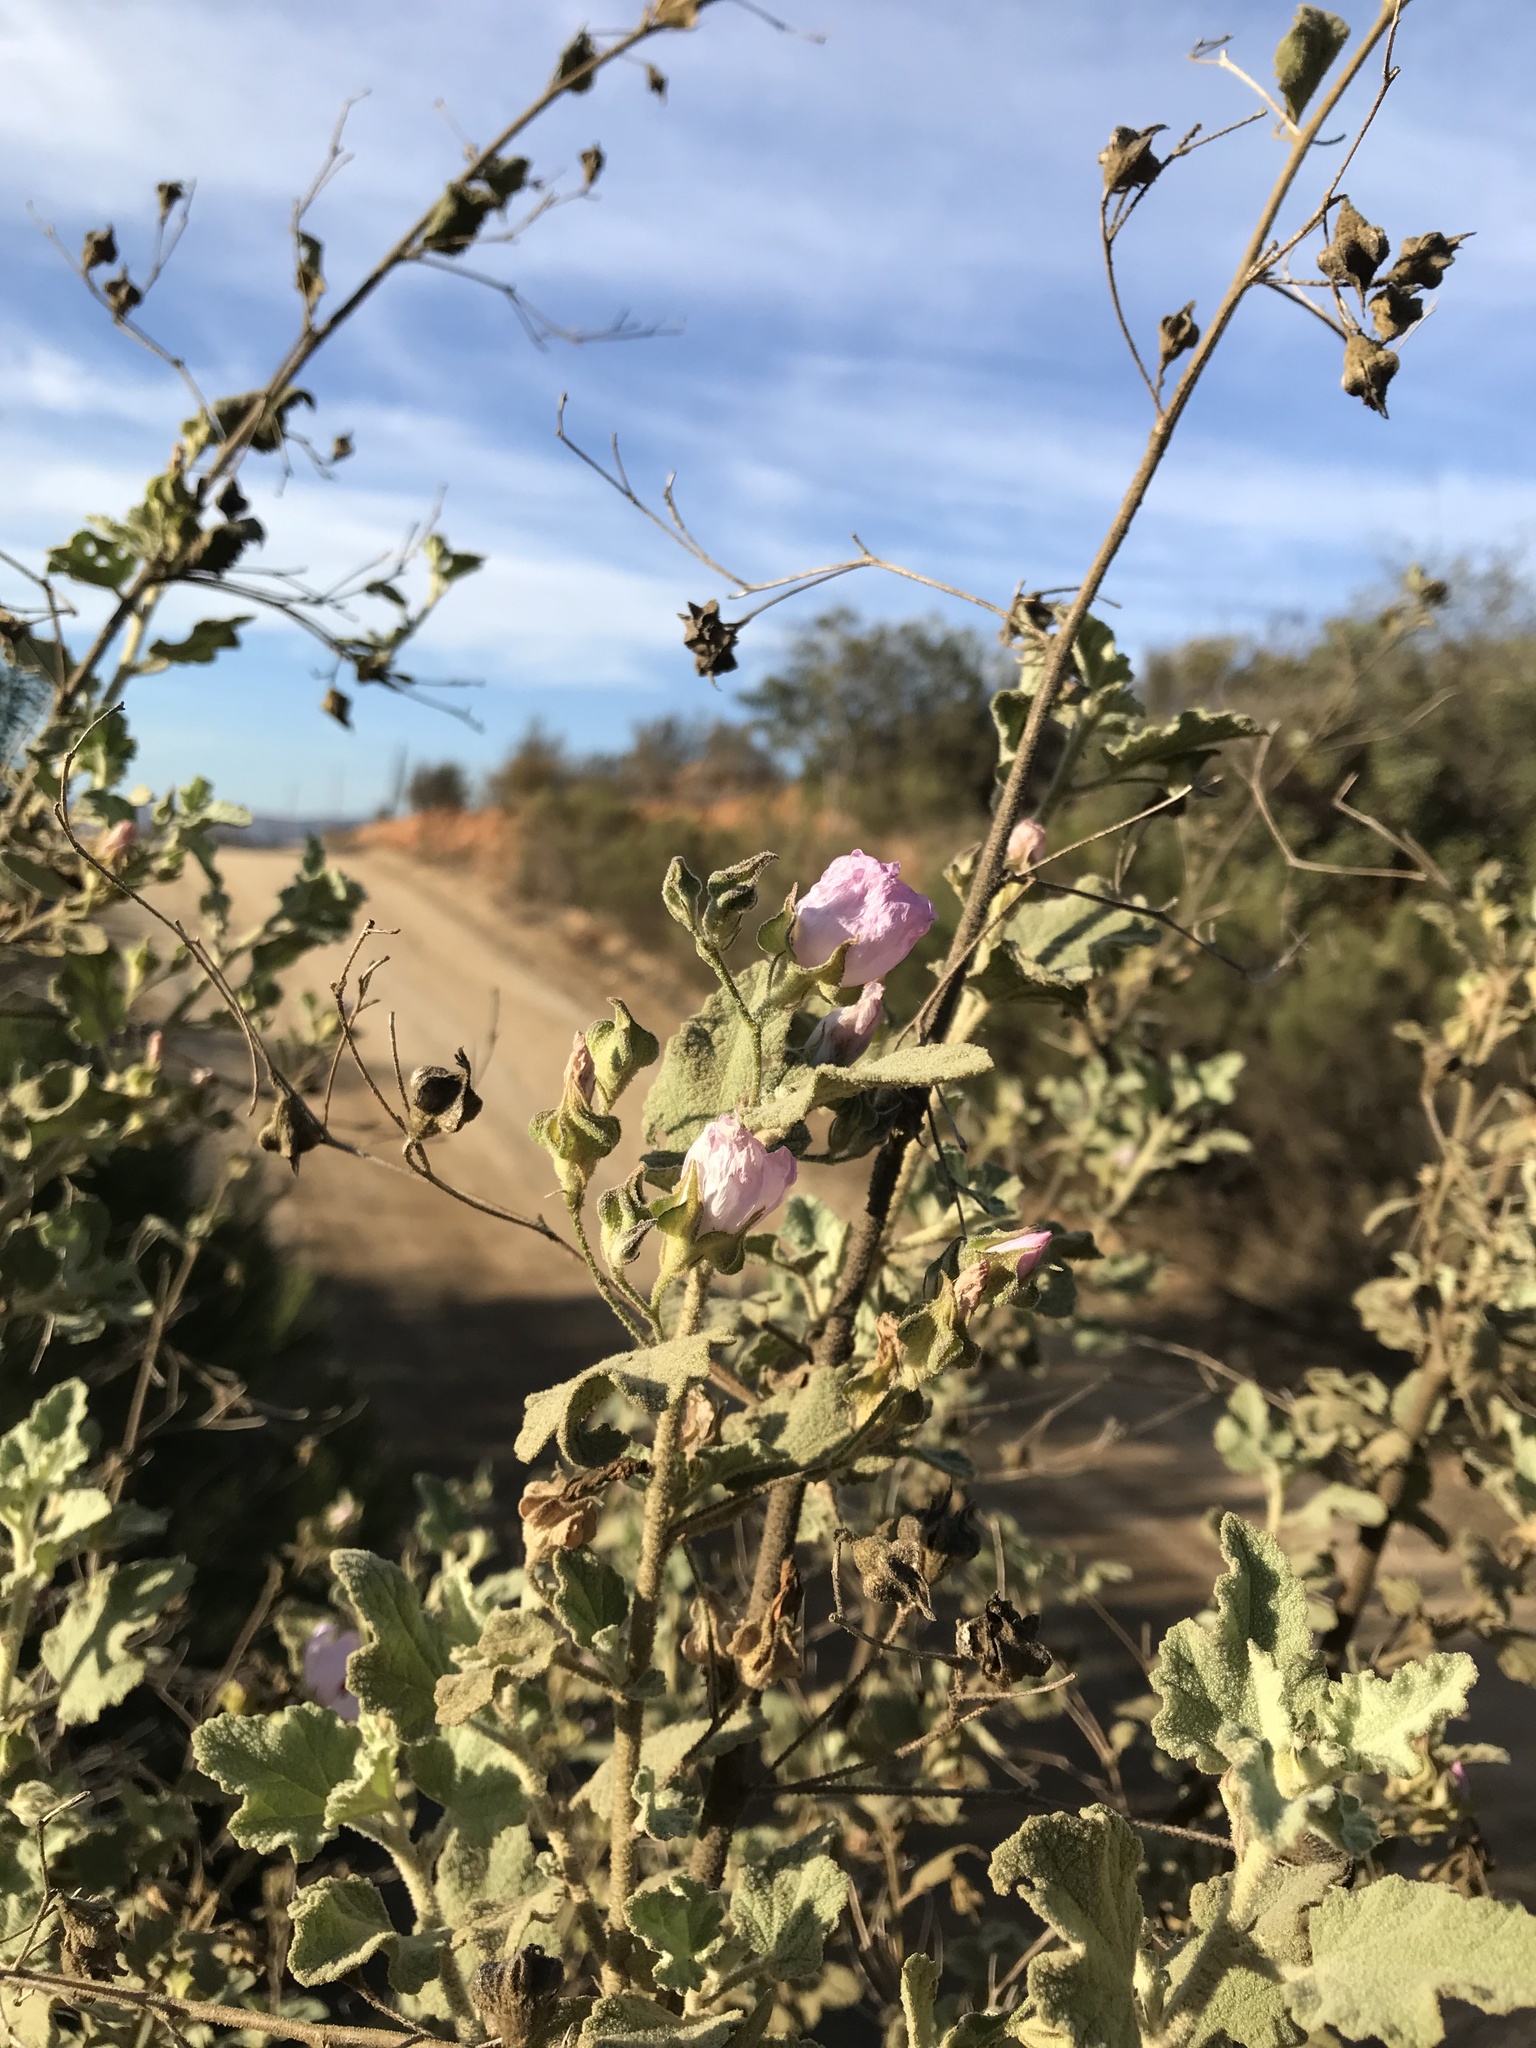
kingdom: Plantae
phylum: Tracheophyta
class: Magnoliopsida
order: Malvales
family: Malvaceae
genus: Malacothamnus
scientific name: Malacothamnus foliosus
